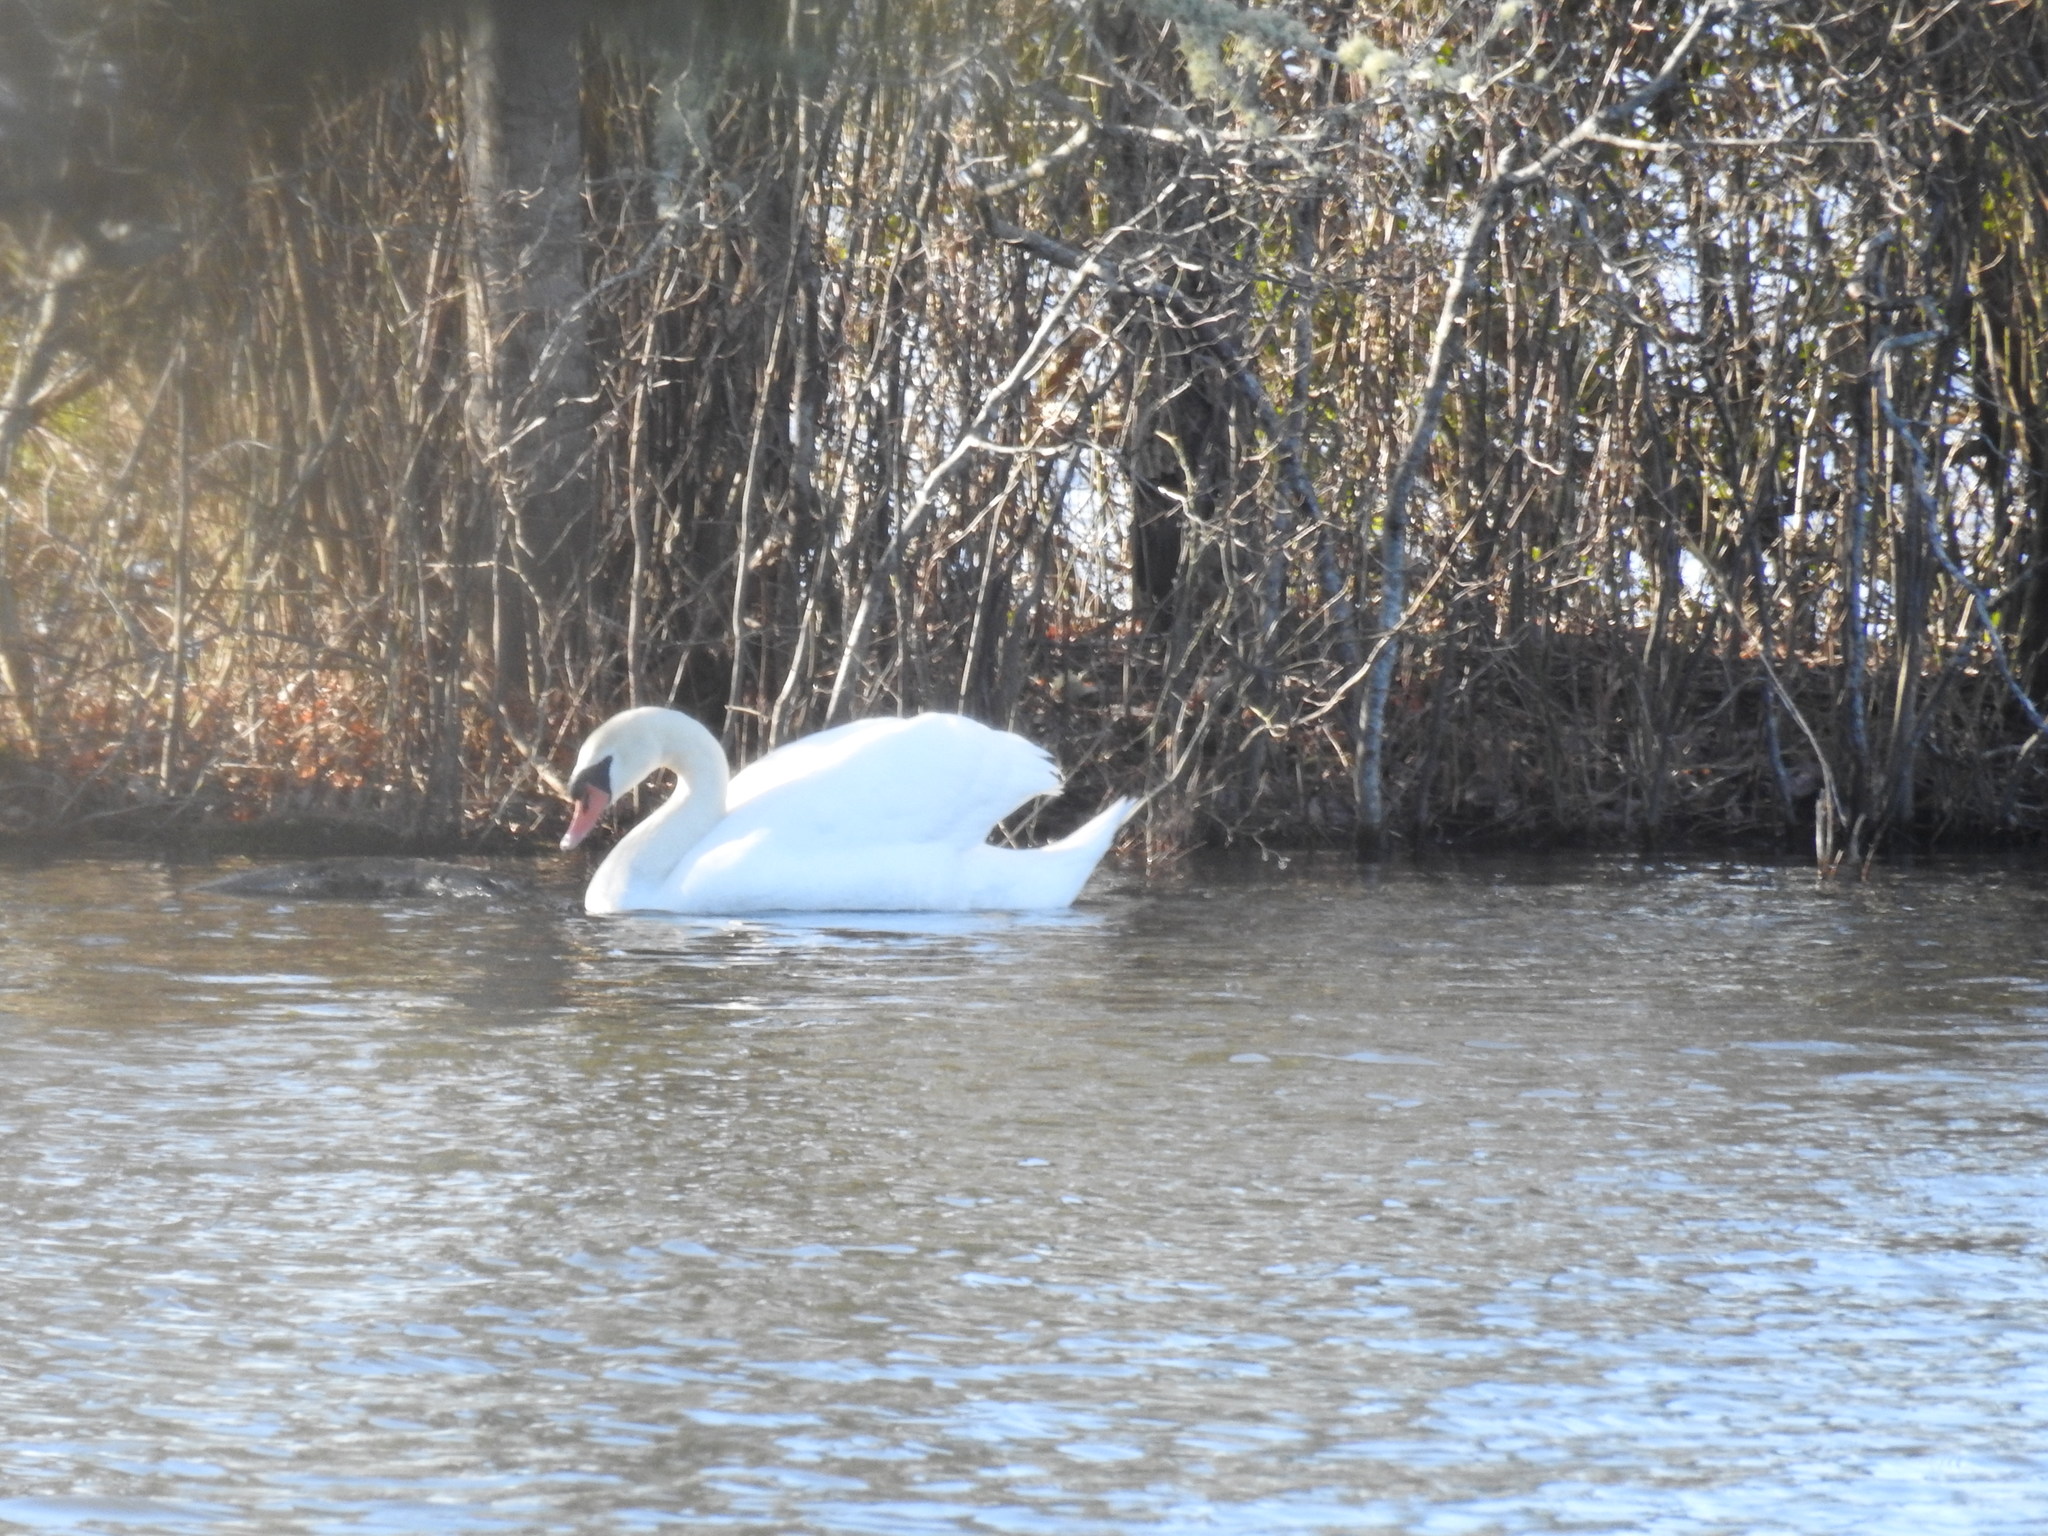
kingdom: Animalia
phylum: Chordata
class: Aves
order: Anseriformes
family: Anatidae
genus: Cygnus
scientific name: Cygnus olor
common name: Mute swan
